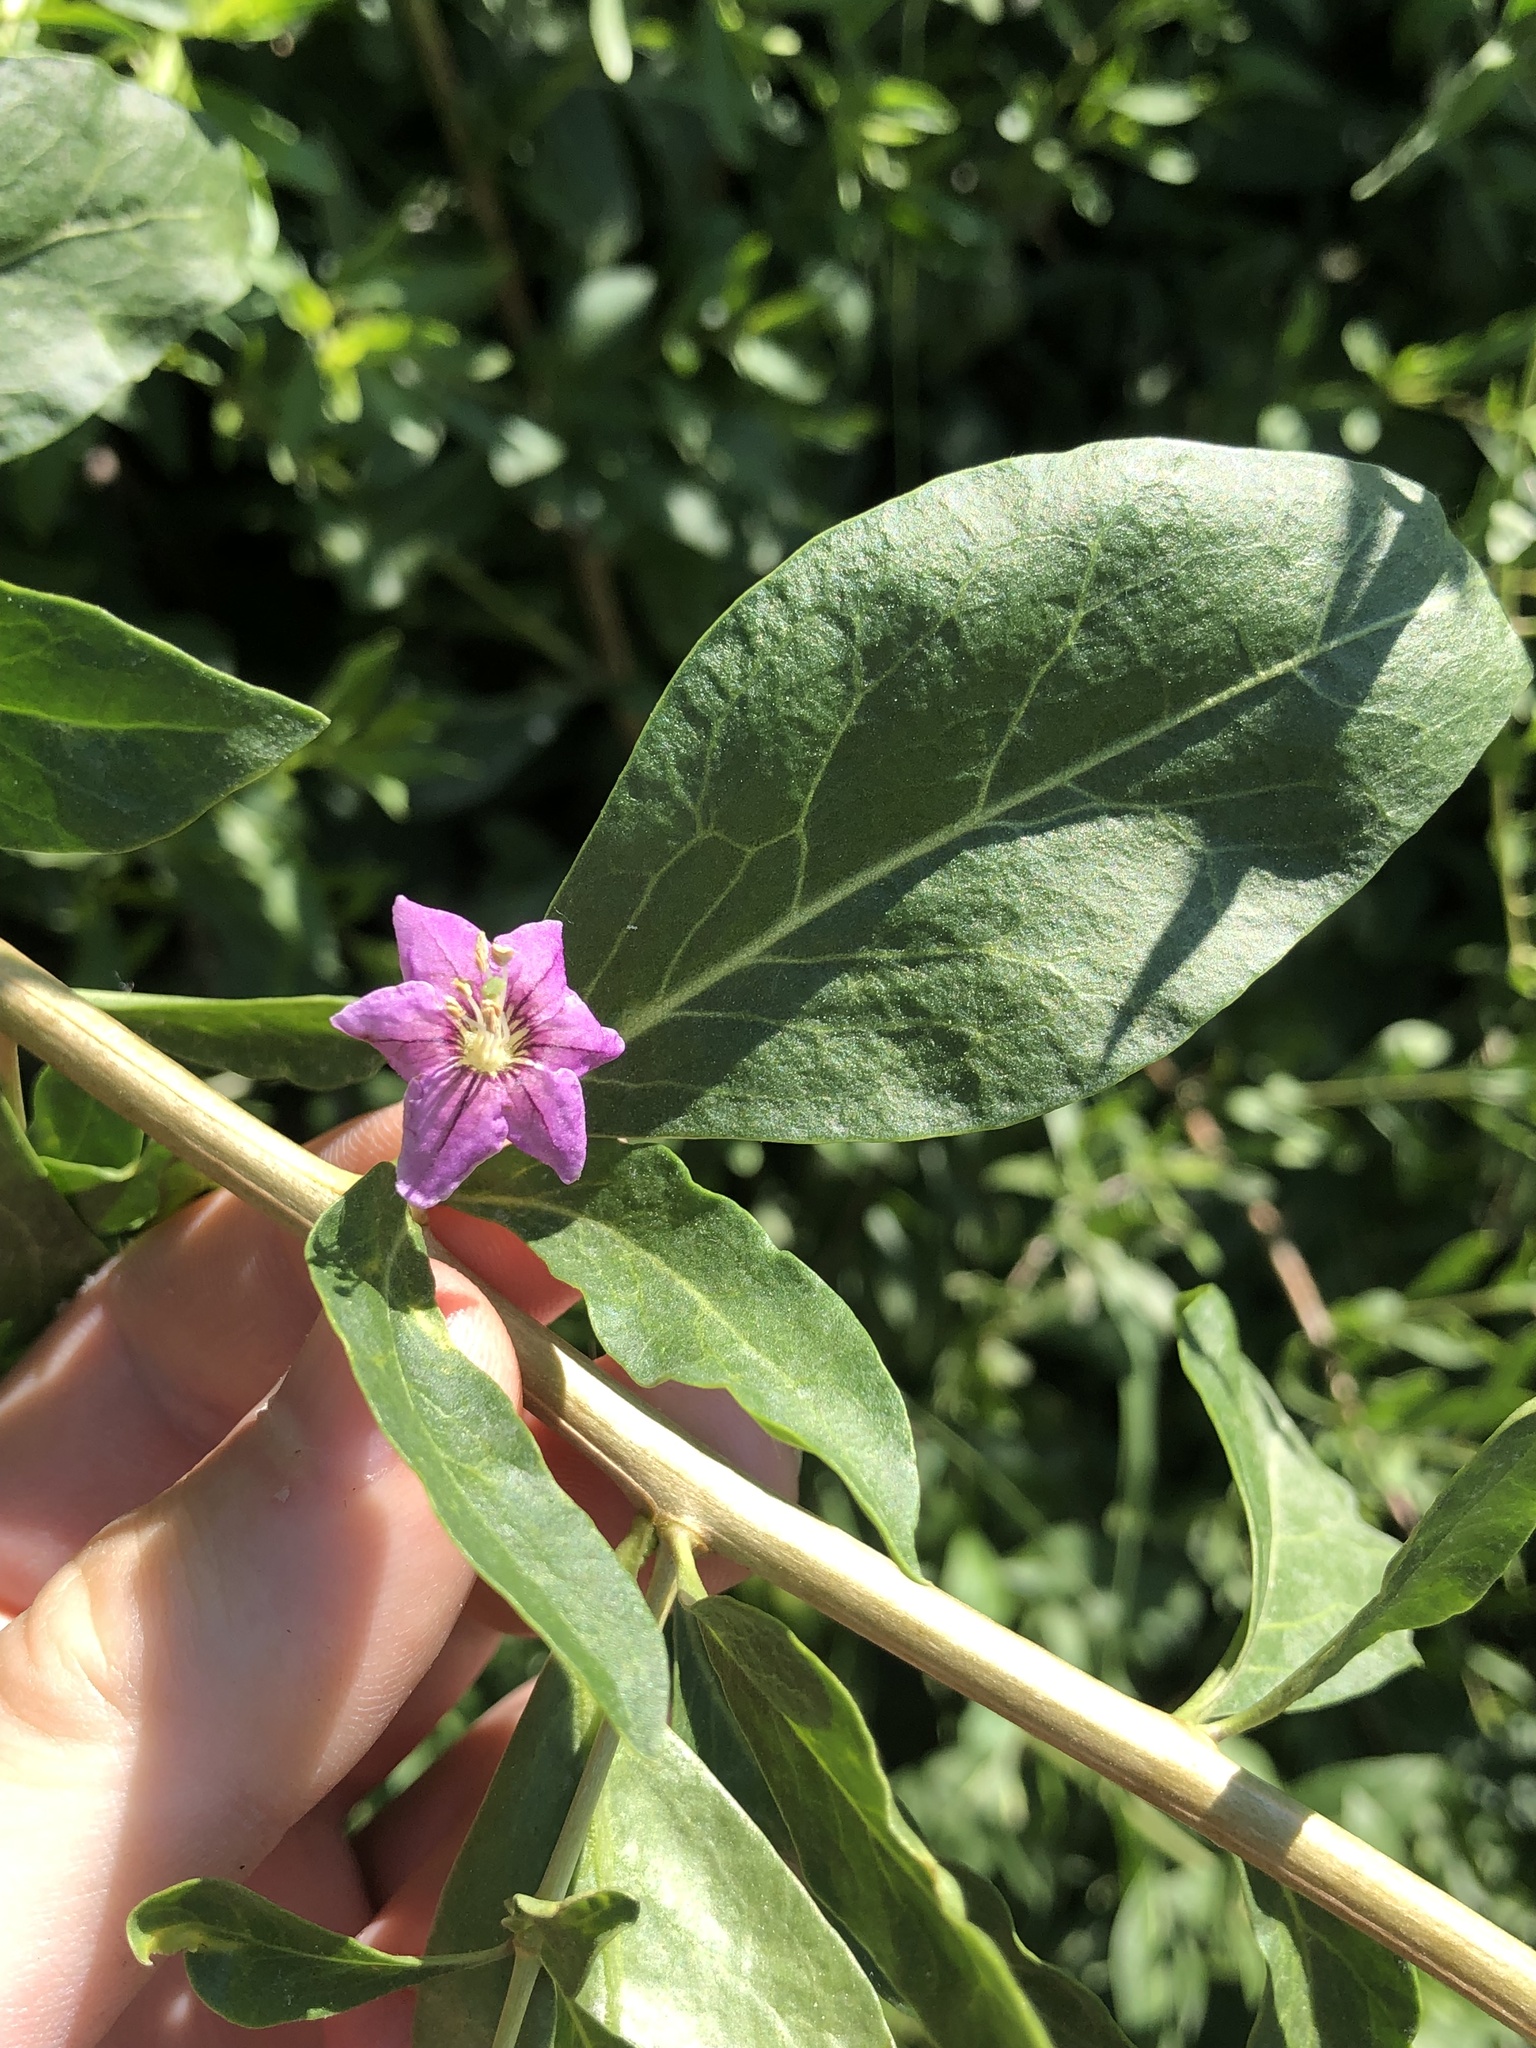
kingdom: Plantae
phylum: Tracheophyta
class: Magnoliopsida
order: Solanales
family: Solanaceae
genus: Lycium
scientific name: Lycium barbarum
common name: Duke of argyll's teaplant
